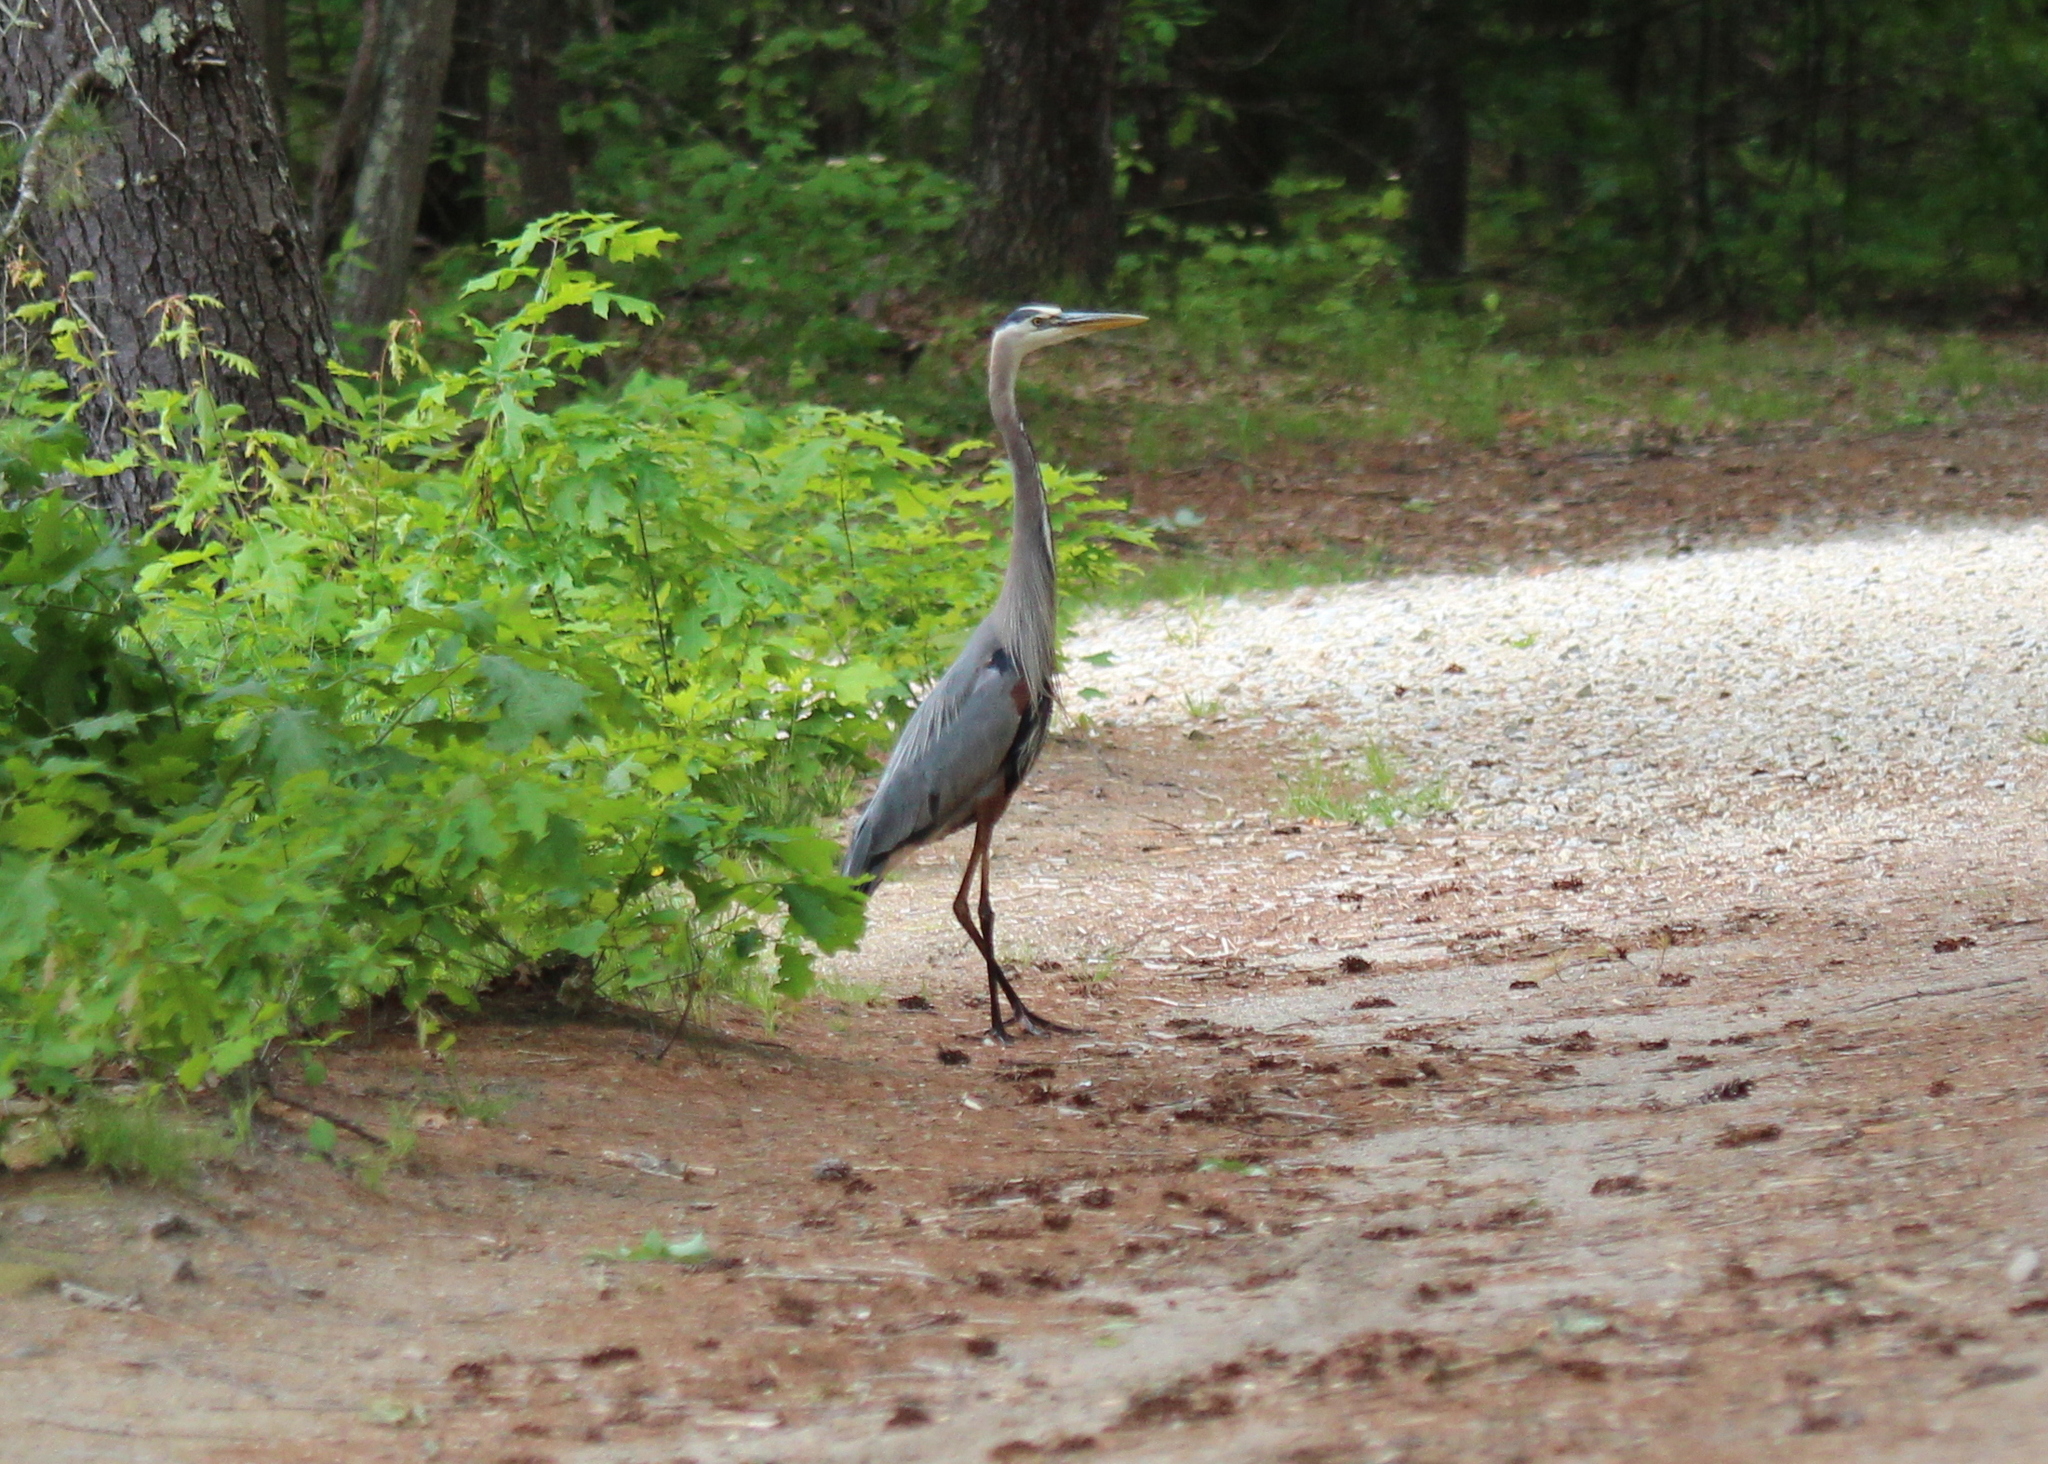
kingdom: Animalia
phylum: Chordata
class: Aves
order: Pelecaniformes
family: Ardeidae
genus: Ardea
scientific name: Ardea herodias
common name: Great blue heron
